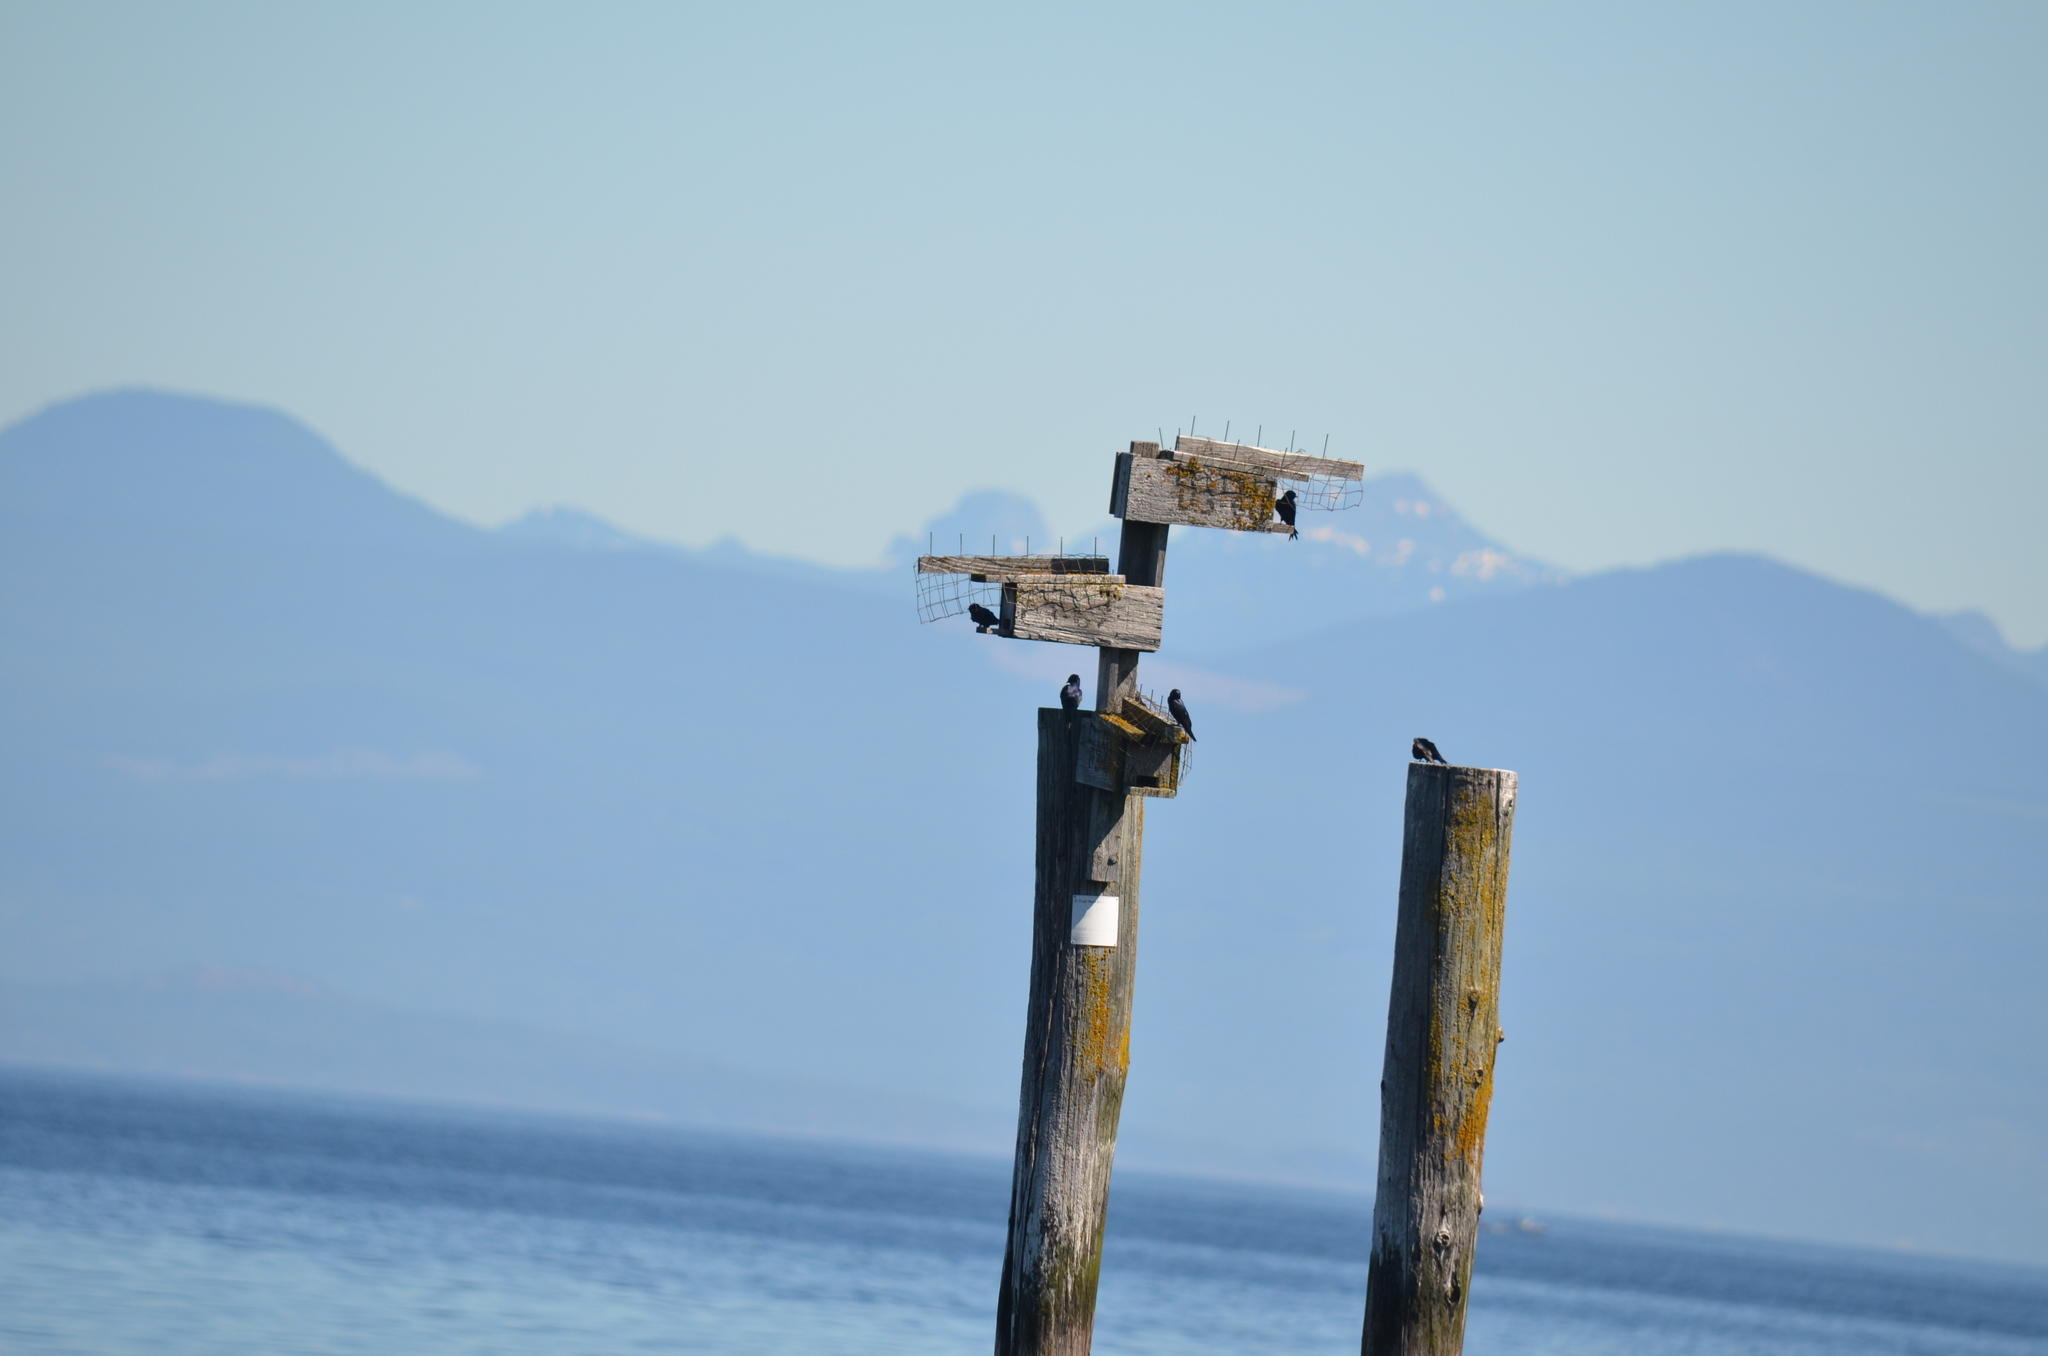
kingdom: Animalia
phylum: Chordata
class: Aves
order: Passeriformes
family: Hirundinidae
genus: Progne
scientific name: Progne subis
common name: Purple martin
